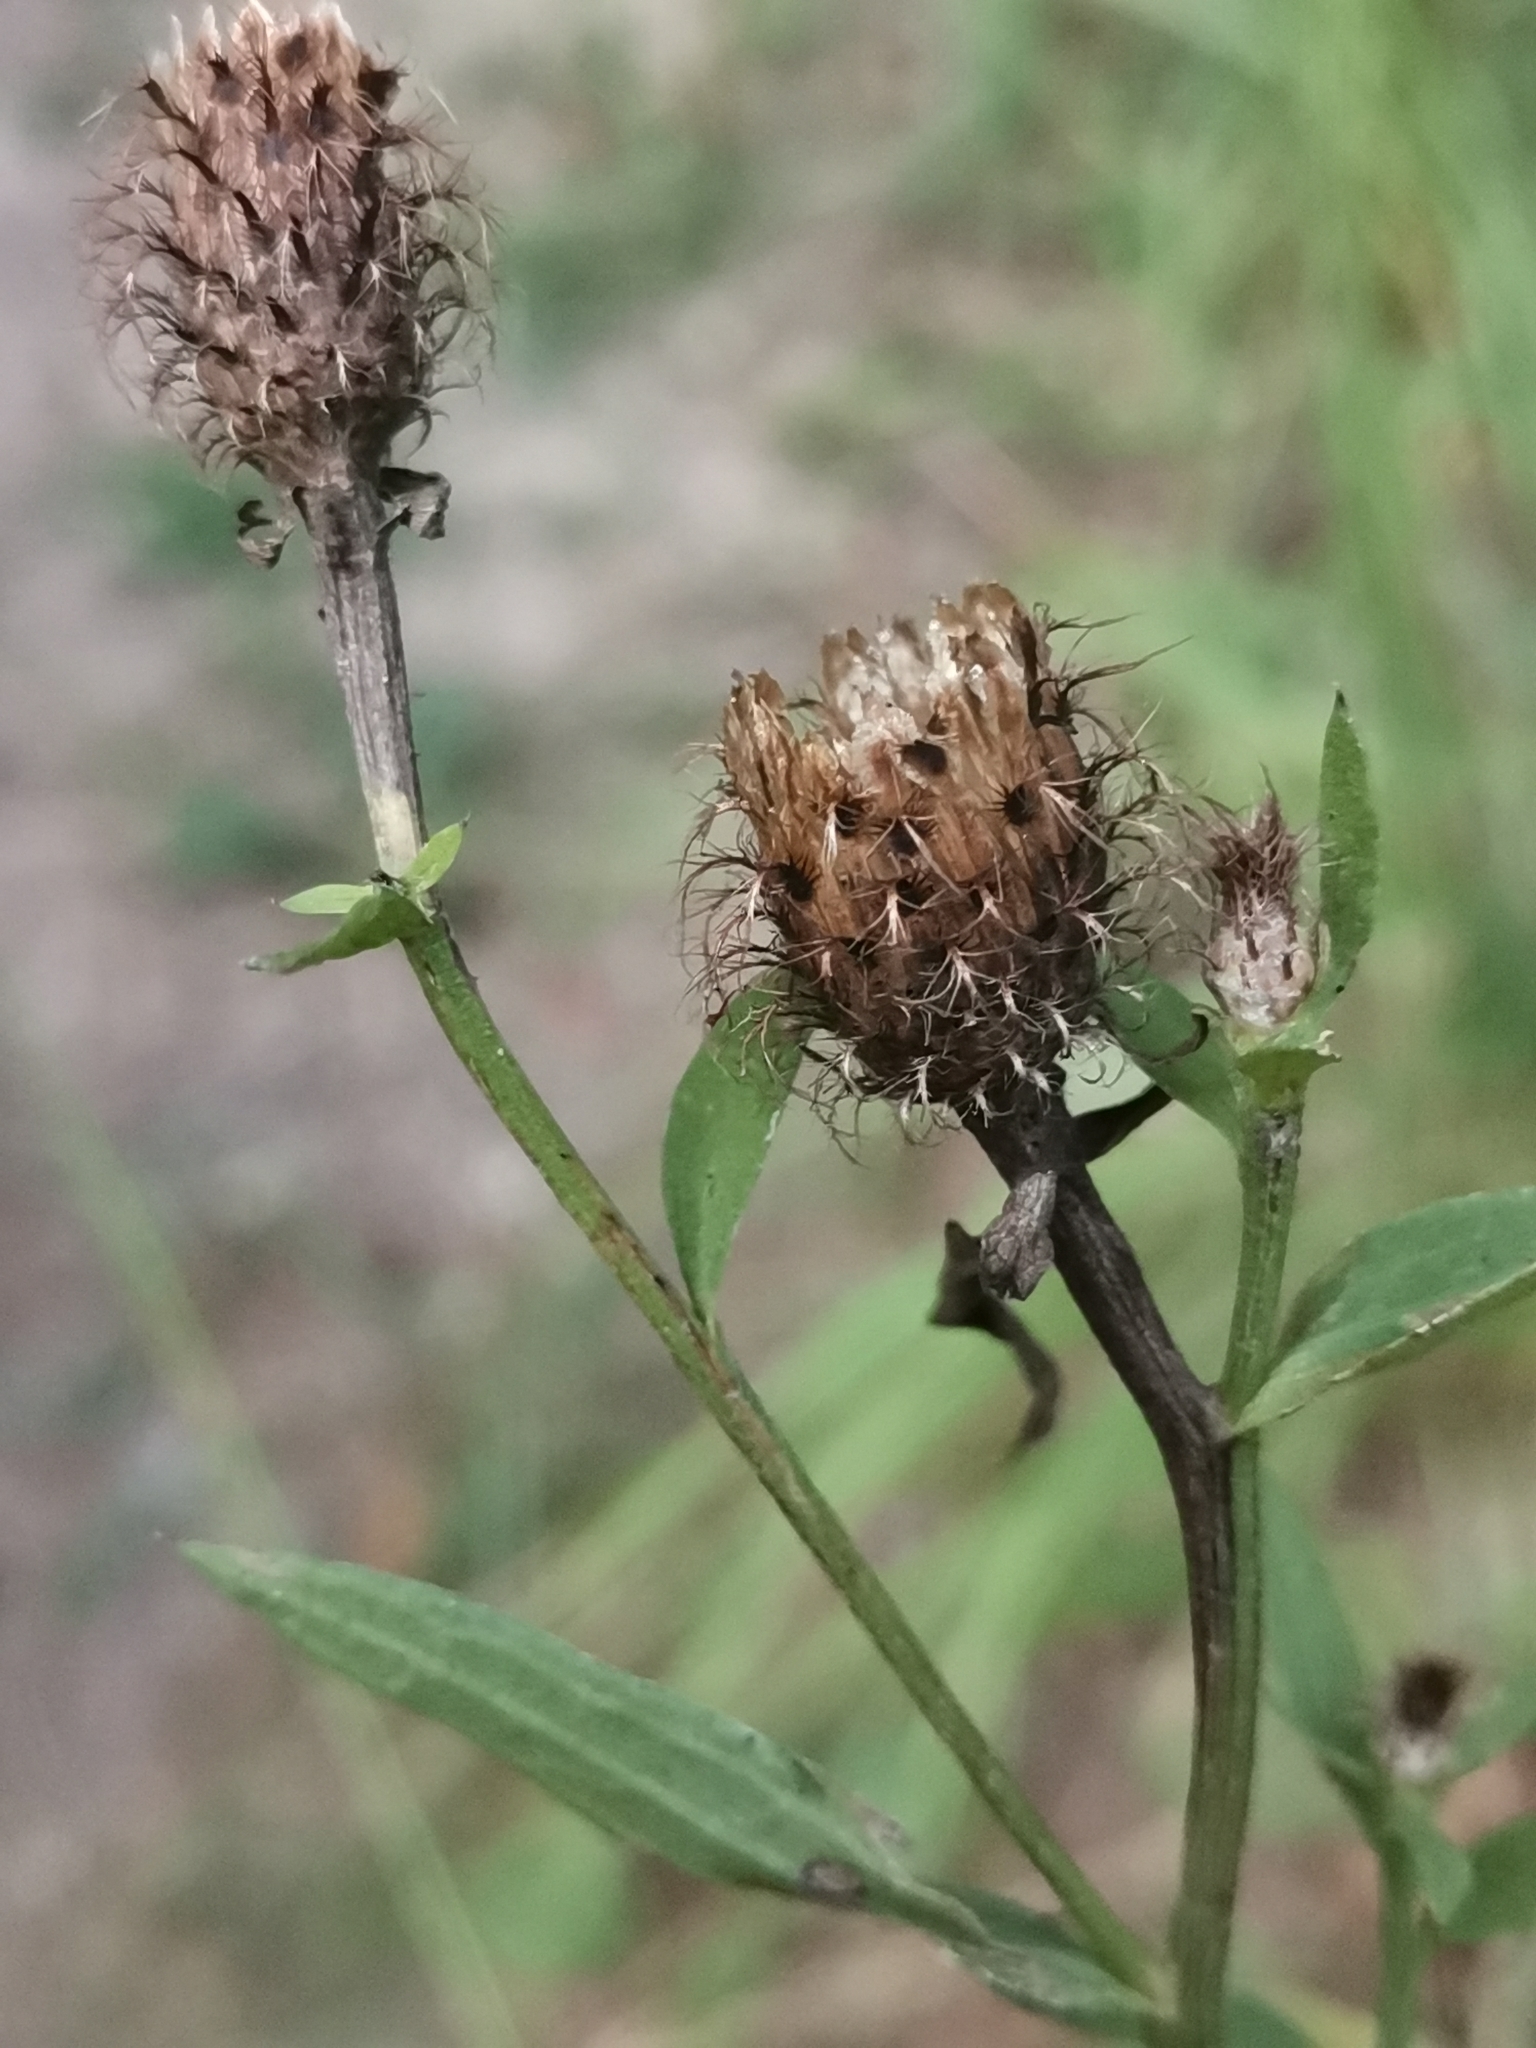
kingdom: Plantae
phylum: Tracheophyta
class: Magnoliopsida
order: Asterales
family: Asteraceae
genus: Centaurea
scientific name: Centaurea macroptilon
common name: Giant knapweed
